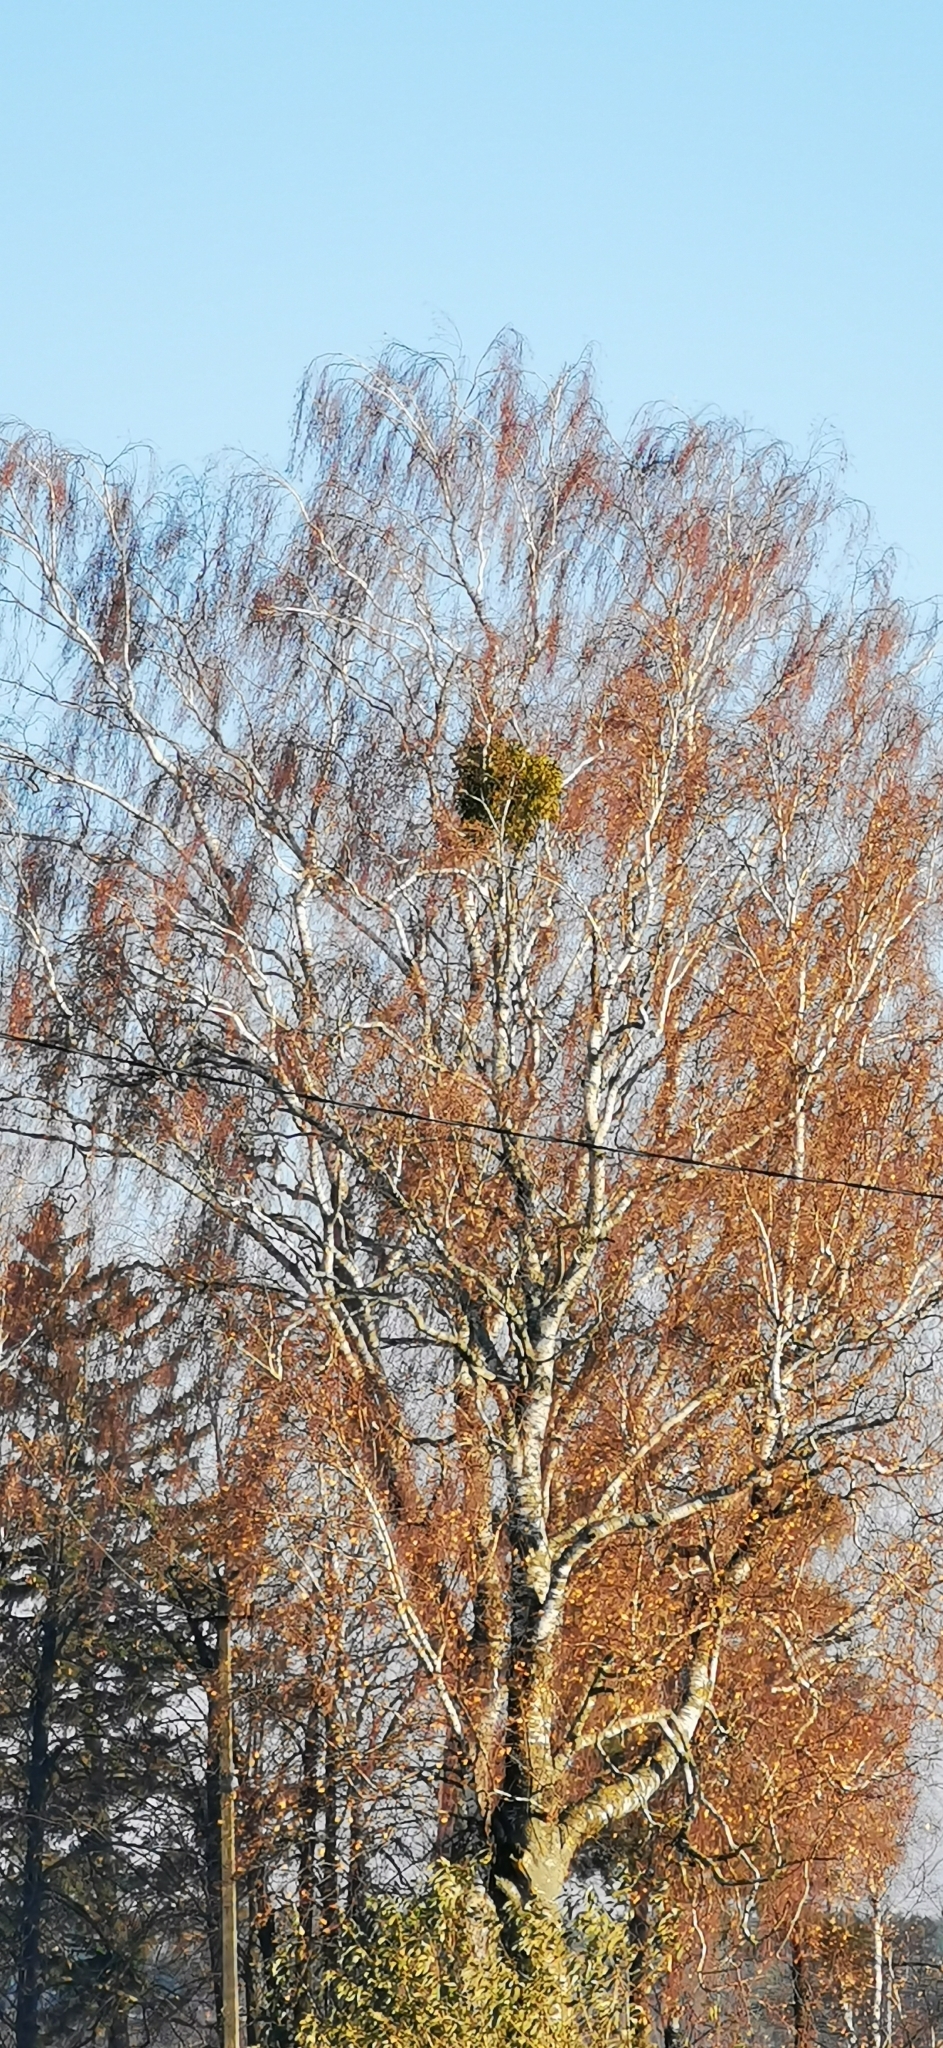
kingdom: Plantae
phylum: Tracheophyta
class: Magnoliopsida
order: Santalales
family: Viscaceae
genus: Viscum
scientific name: Viscum album
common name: Mistletoe
